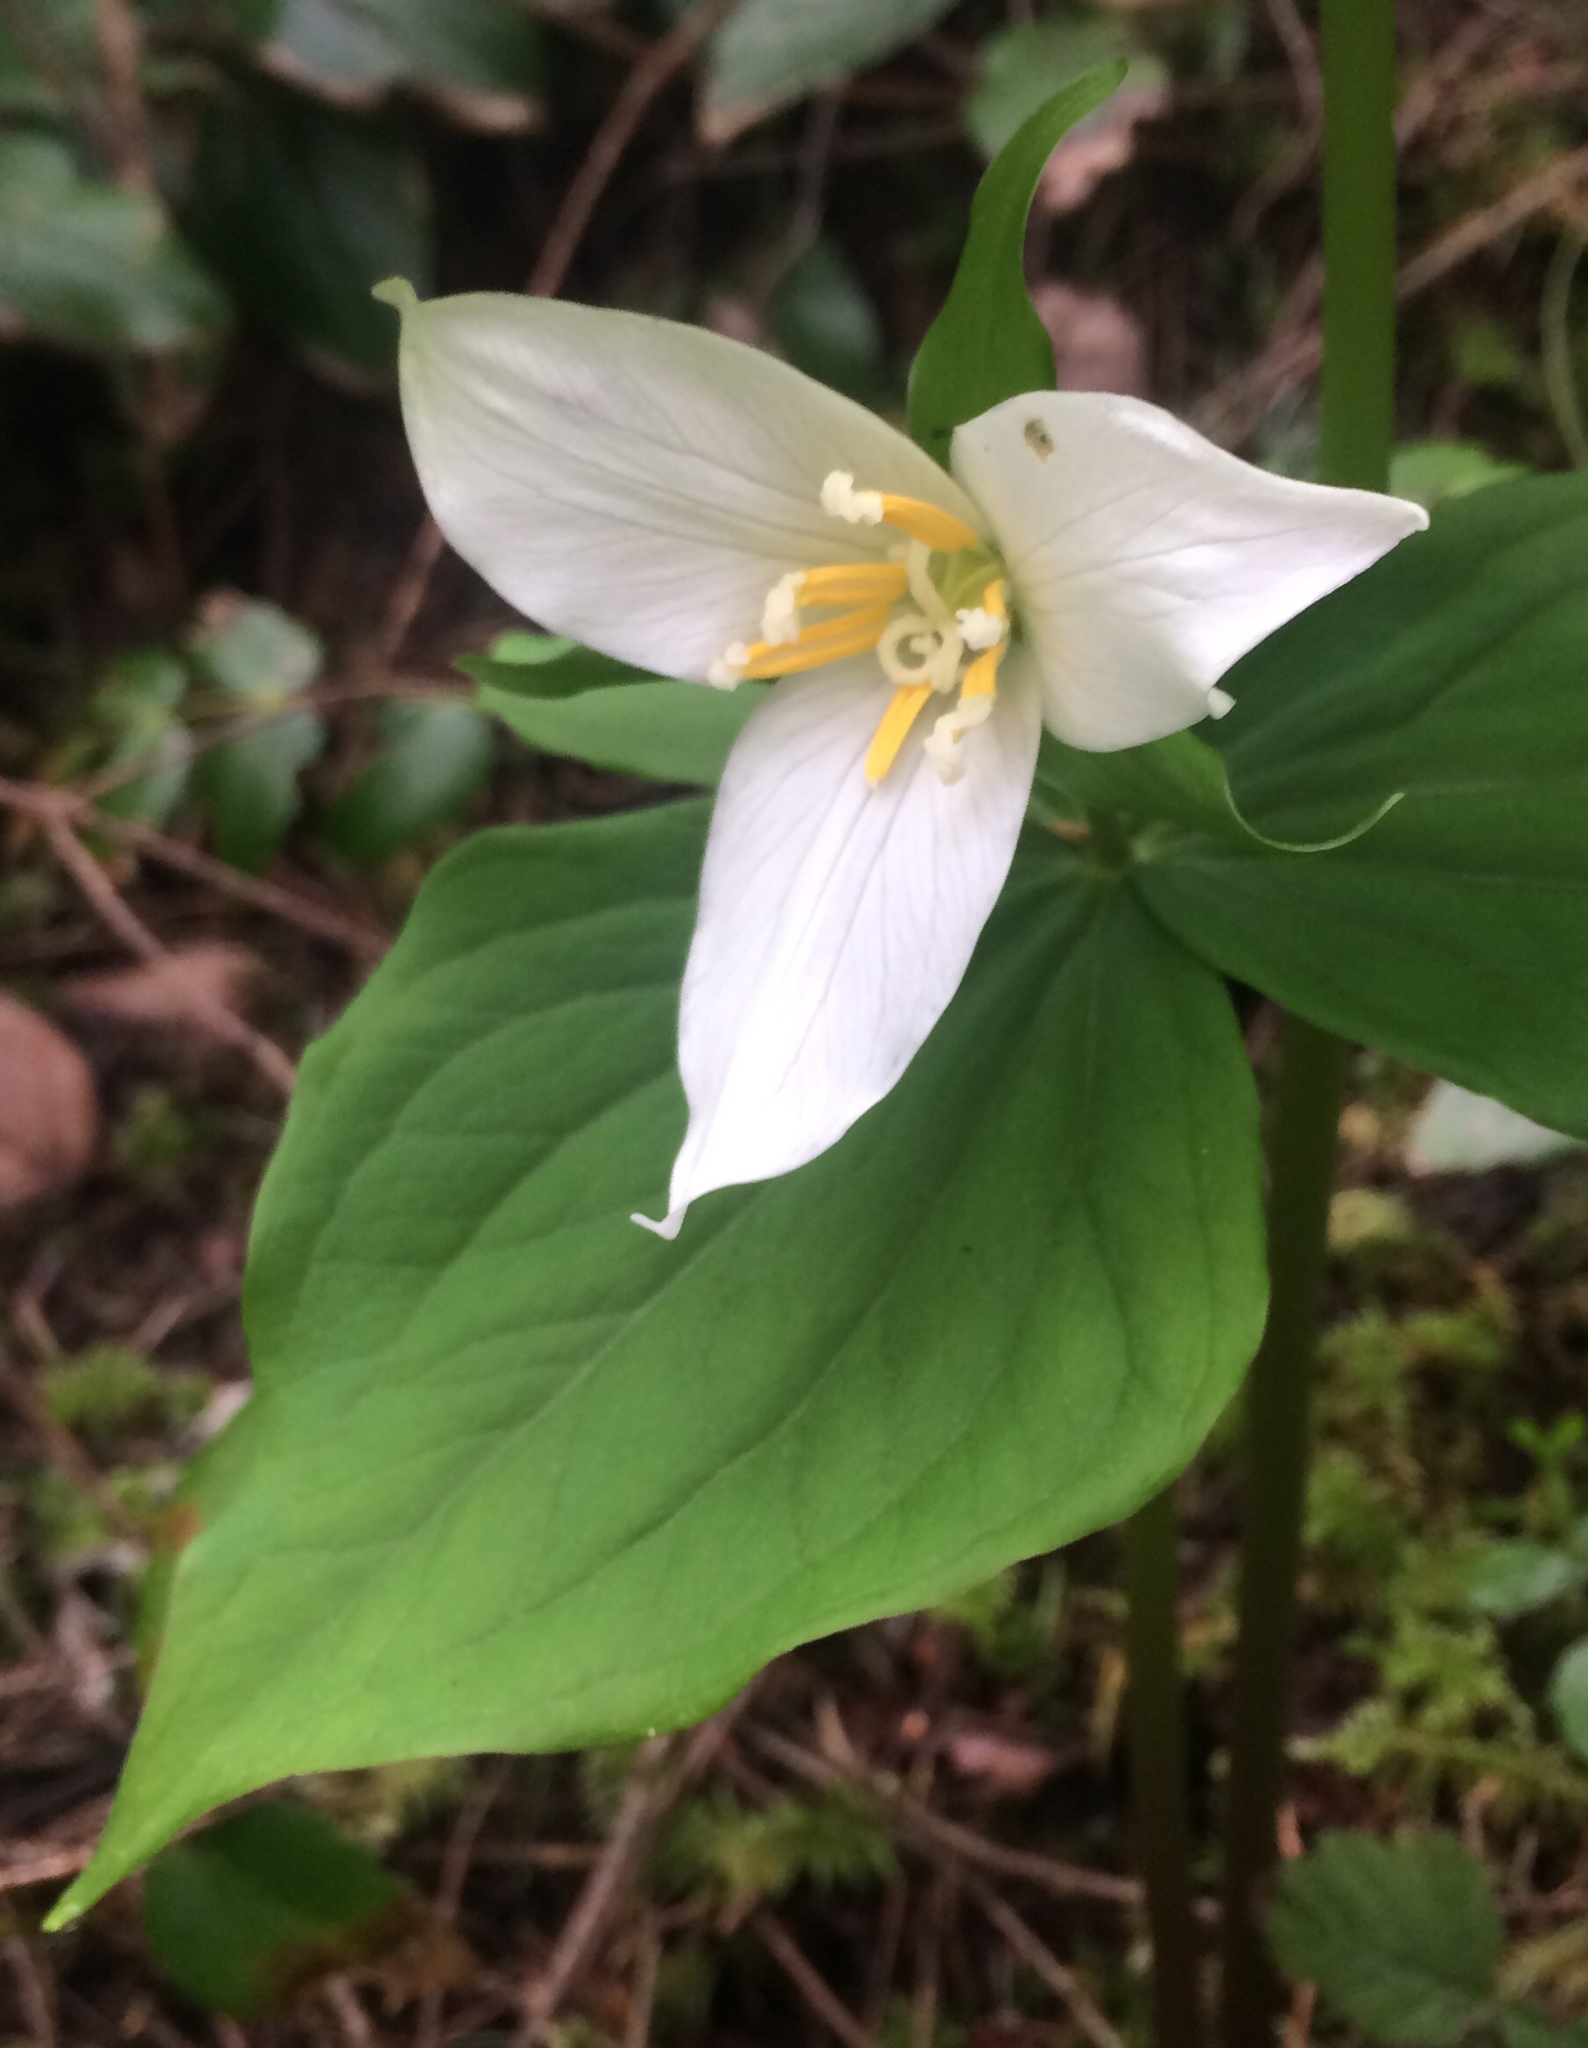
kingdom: Plantae
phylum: Tracheophyta
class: Liliopsida
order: Liliales
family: Melanthiaceae
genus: Trillium
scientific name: Trillium ovatum
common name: Pacific trillium
